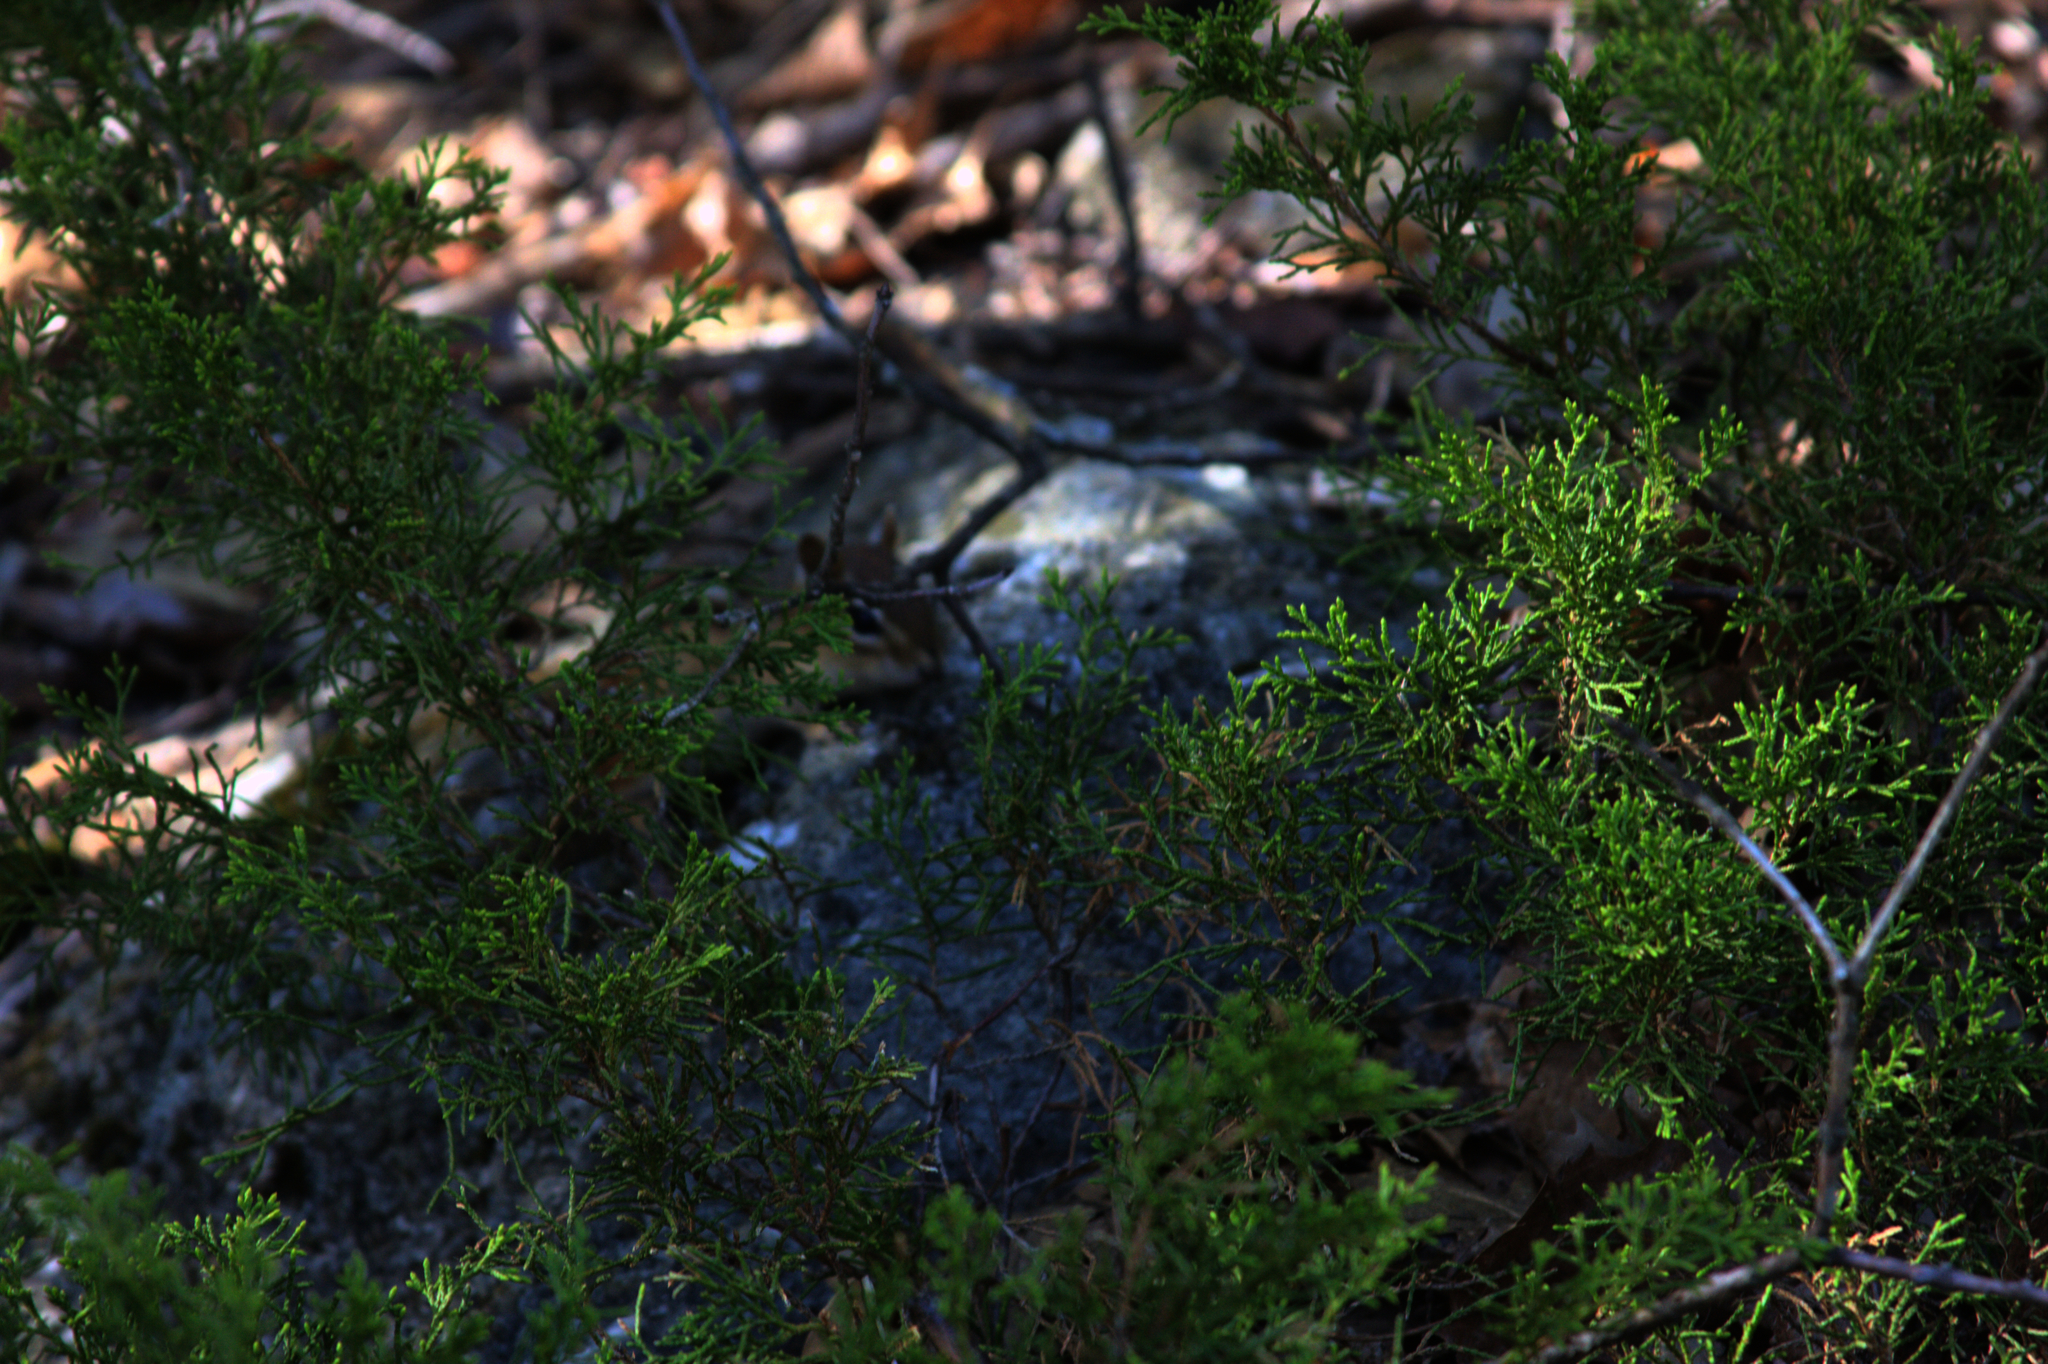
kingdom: Animalia
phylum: Chordata
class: Mammalia
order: Rodentia
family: Sciuridae
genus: Tamias
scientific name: Tamias striatus
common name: Eastern chipmunk
